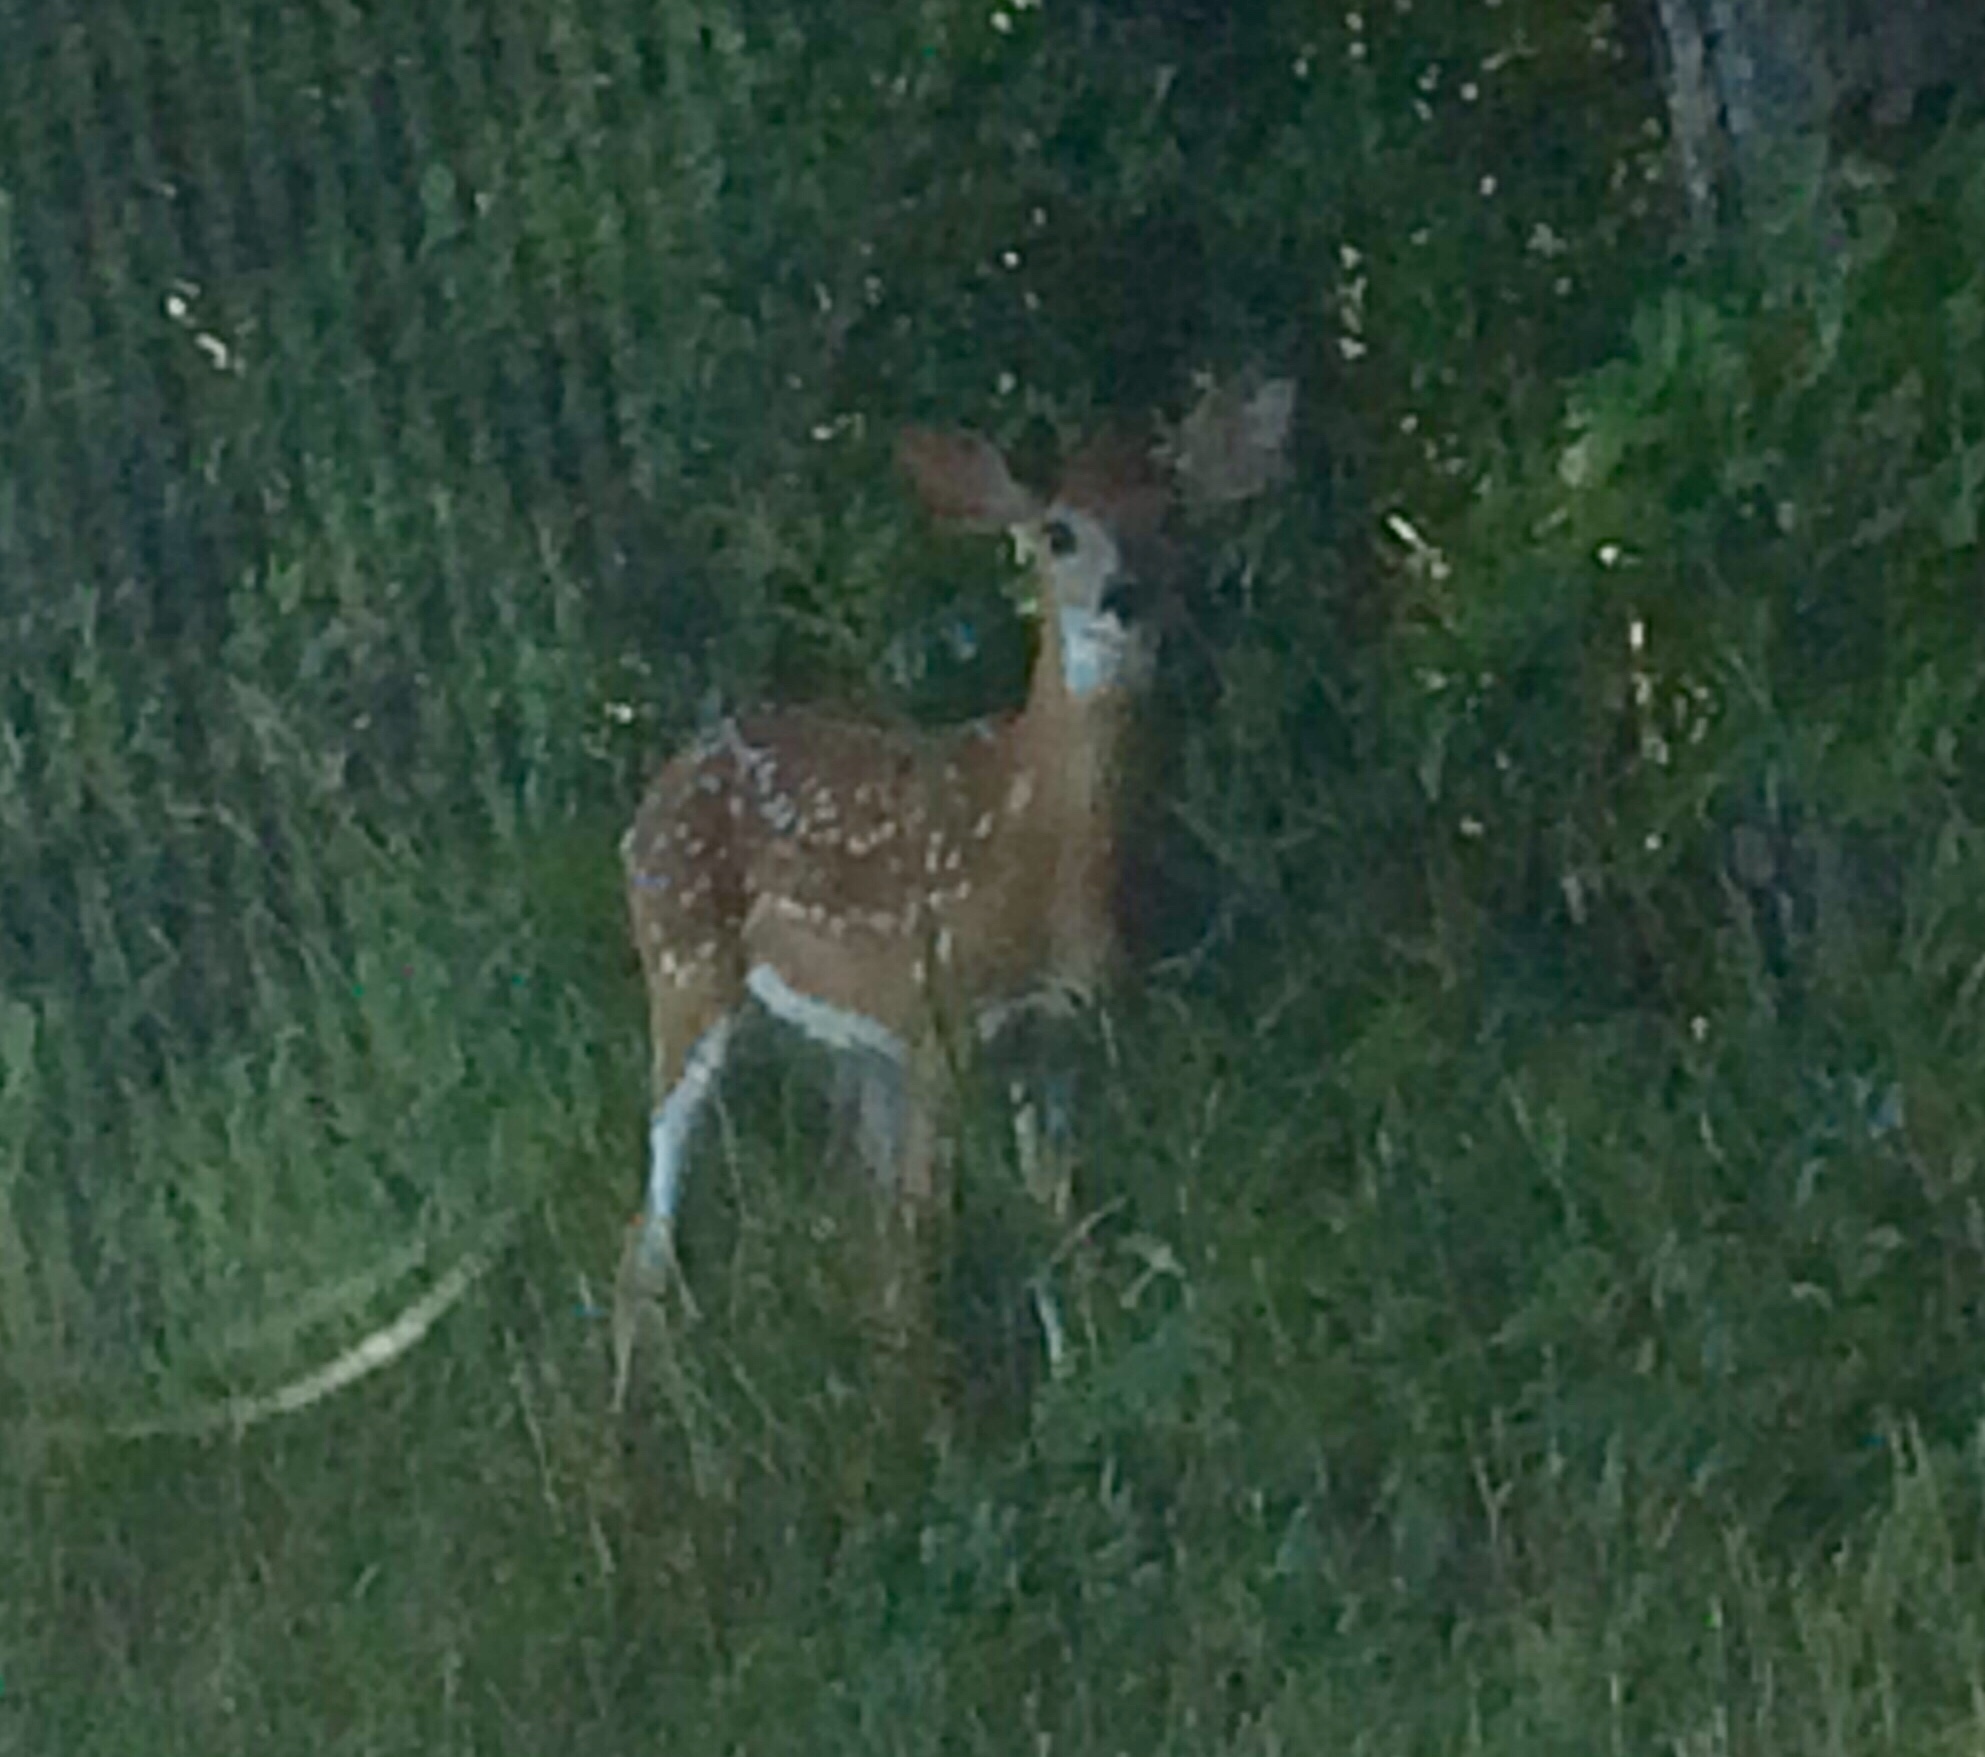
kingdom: Animalia
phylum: Chordata
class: Mammalia
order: Artiodactyla
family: Cervidae
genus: Odocoileus
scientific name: Odocoileus virginianus
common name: White-tailed deer
